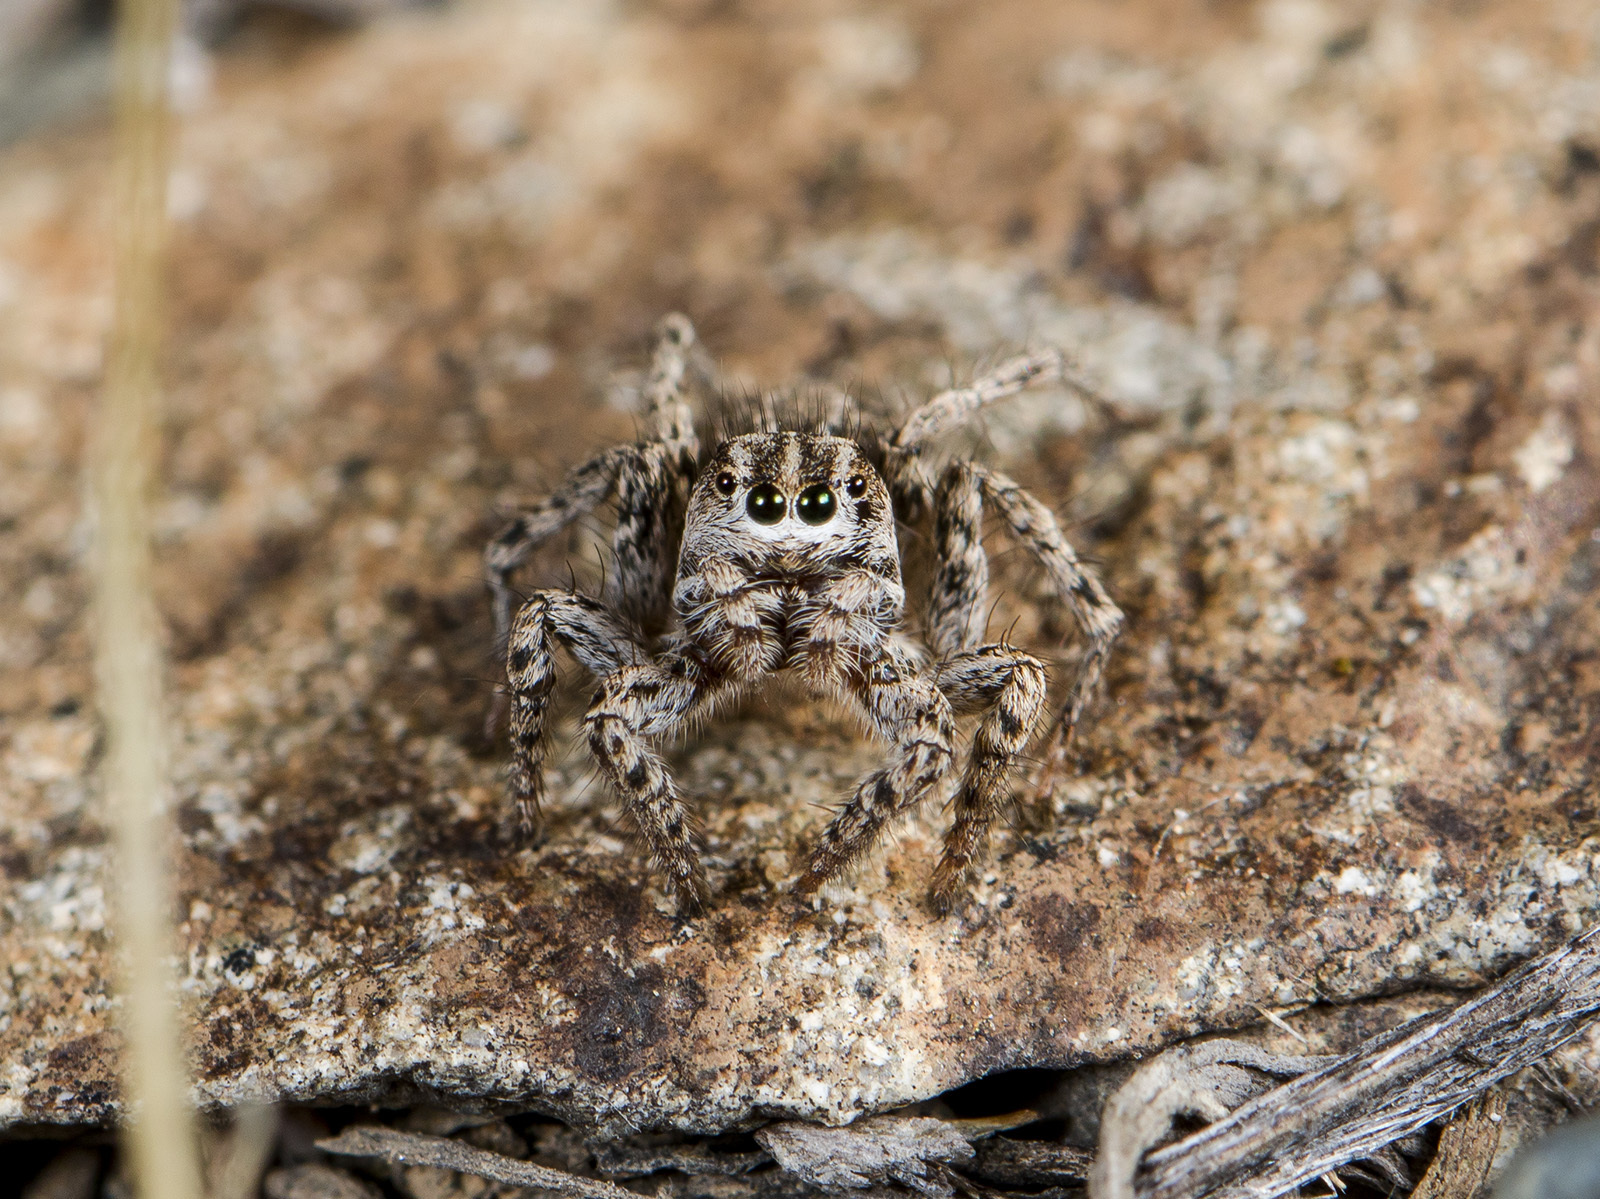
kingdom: Animalia
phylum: Arthropoda
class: Arachnida
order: Araneae
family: Salticidae
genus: Aelurillus
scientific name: Aelurillus m-nigrum
